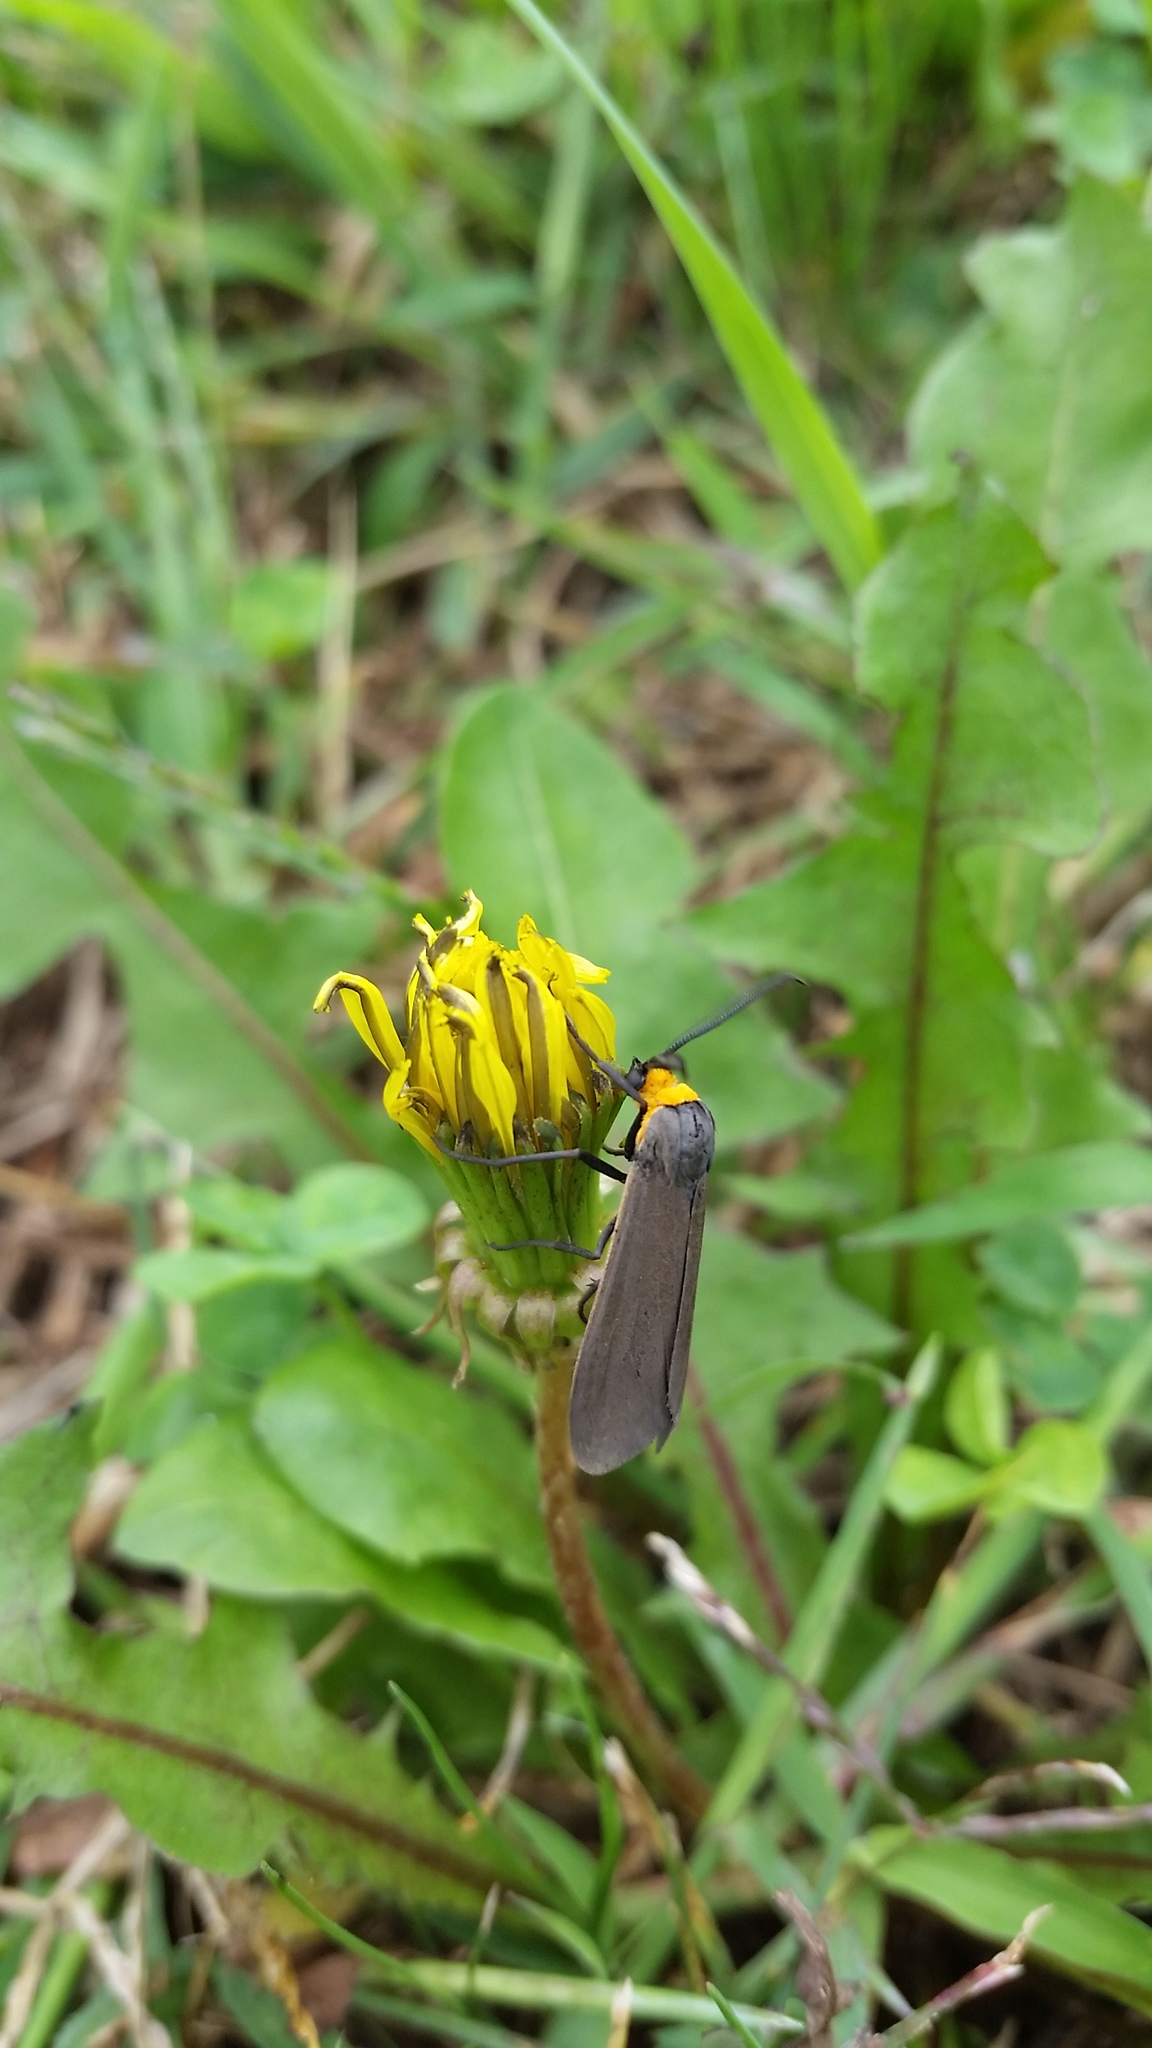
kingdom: Animalia
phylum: Arthropoda
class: Insecta
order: Lepidoptera
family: Erebidae
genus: Cisseps
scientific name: Cisseps fulvicollis
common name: Yellow-collared scape moth
